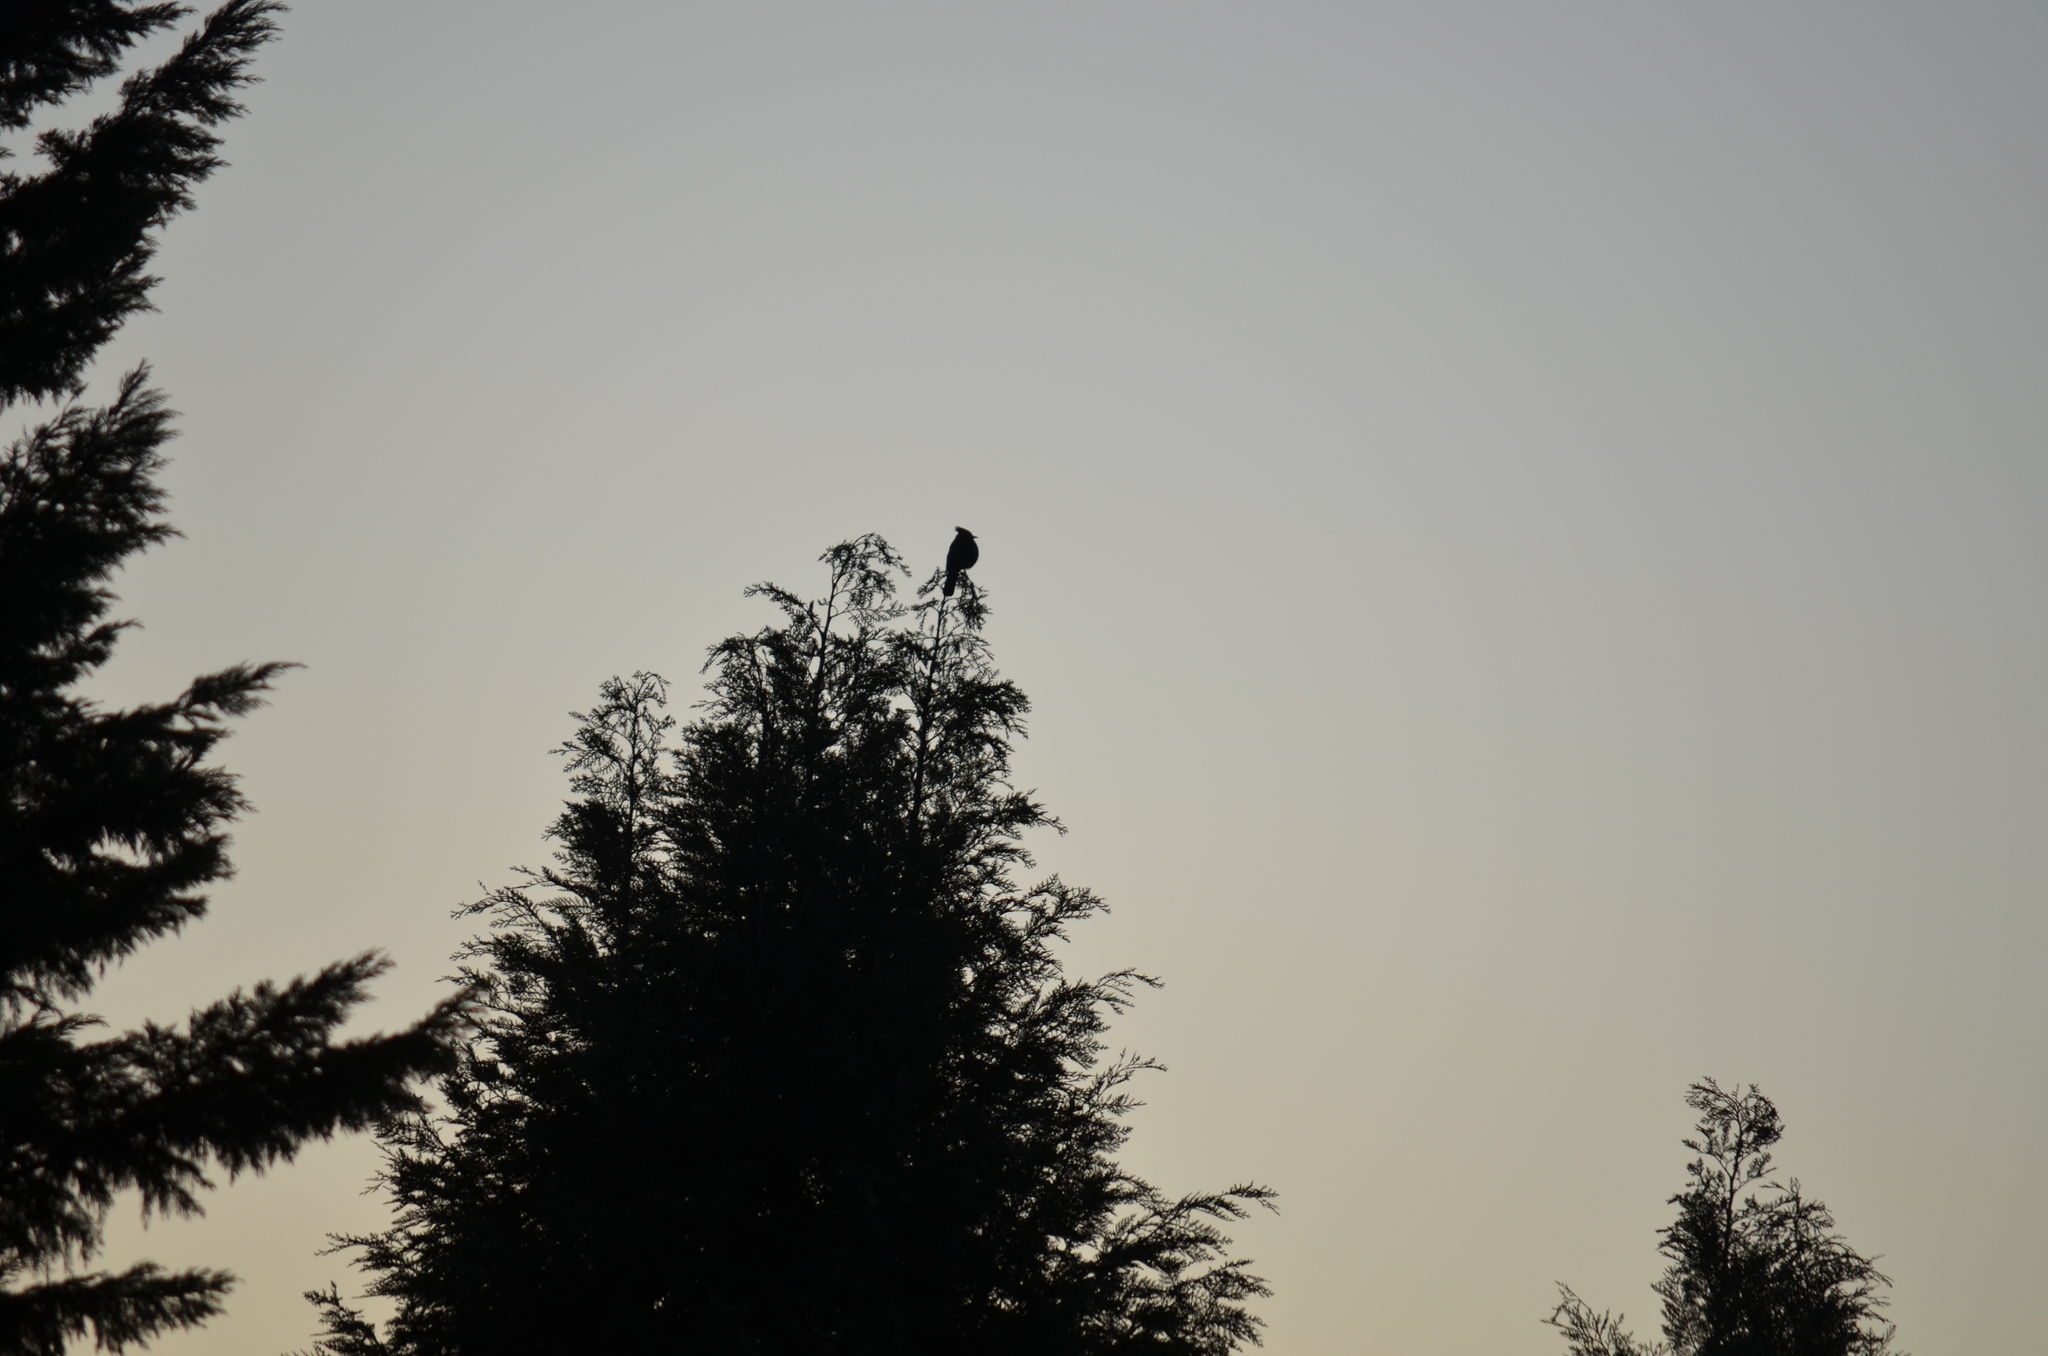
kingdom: Animalia
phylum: Chordata
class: Aves
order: Passeriformes
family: Corvidae
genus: Cyanocitta
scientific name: Cyanocitta stelleri
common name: Steller's jay
